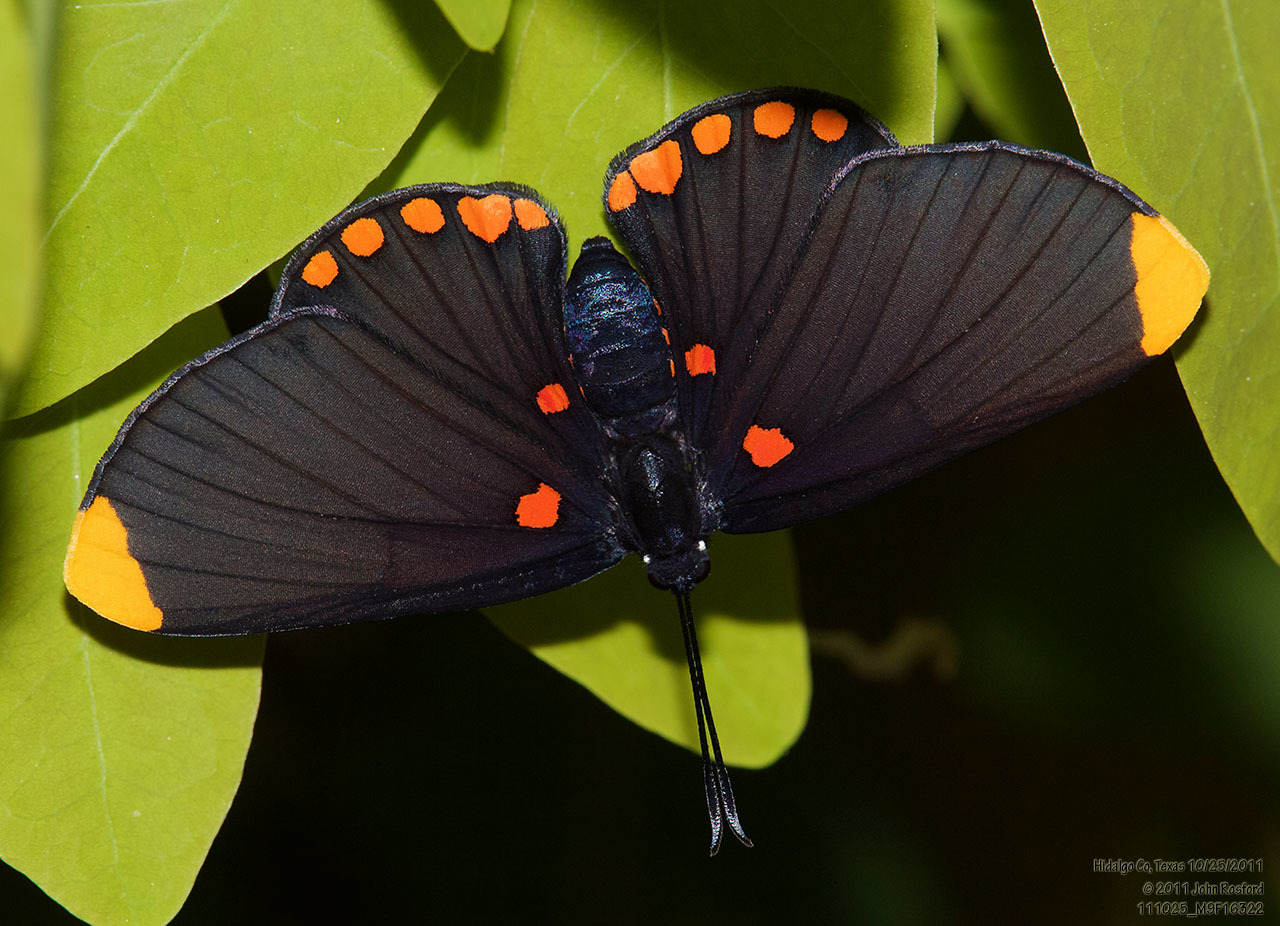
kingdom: Animalia
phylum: Arthropoda
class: Insecta
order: Lepidoptera
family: Lycaenidae
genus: Melanis
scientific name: Melanis pixe
